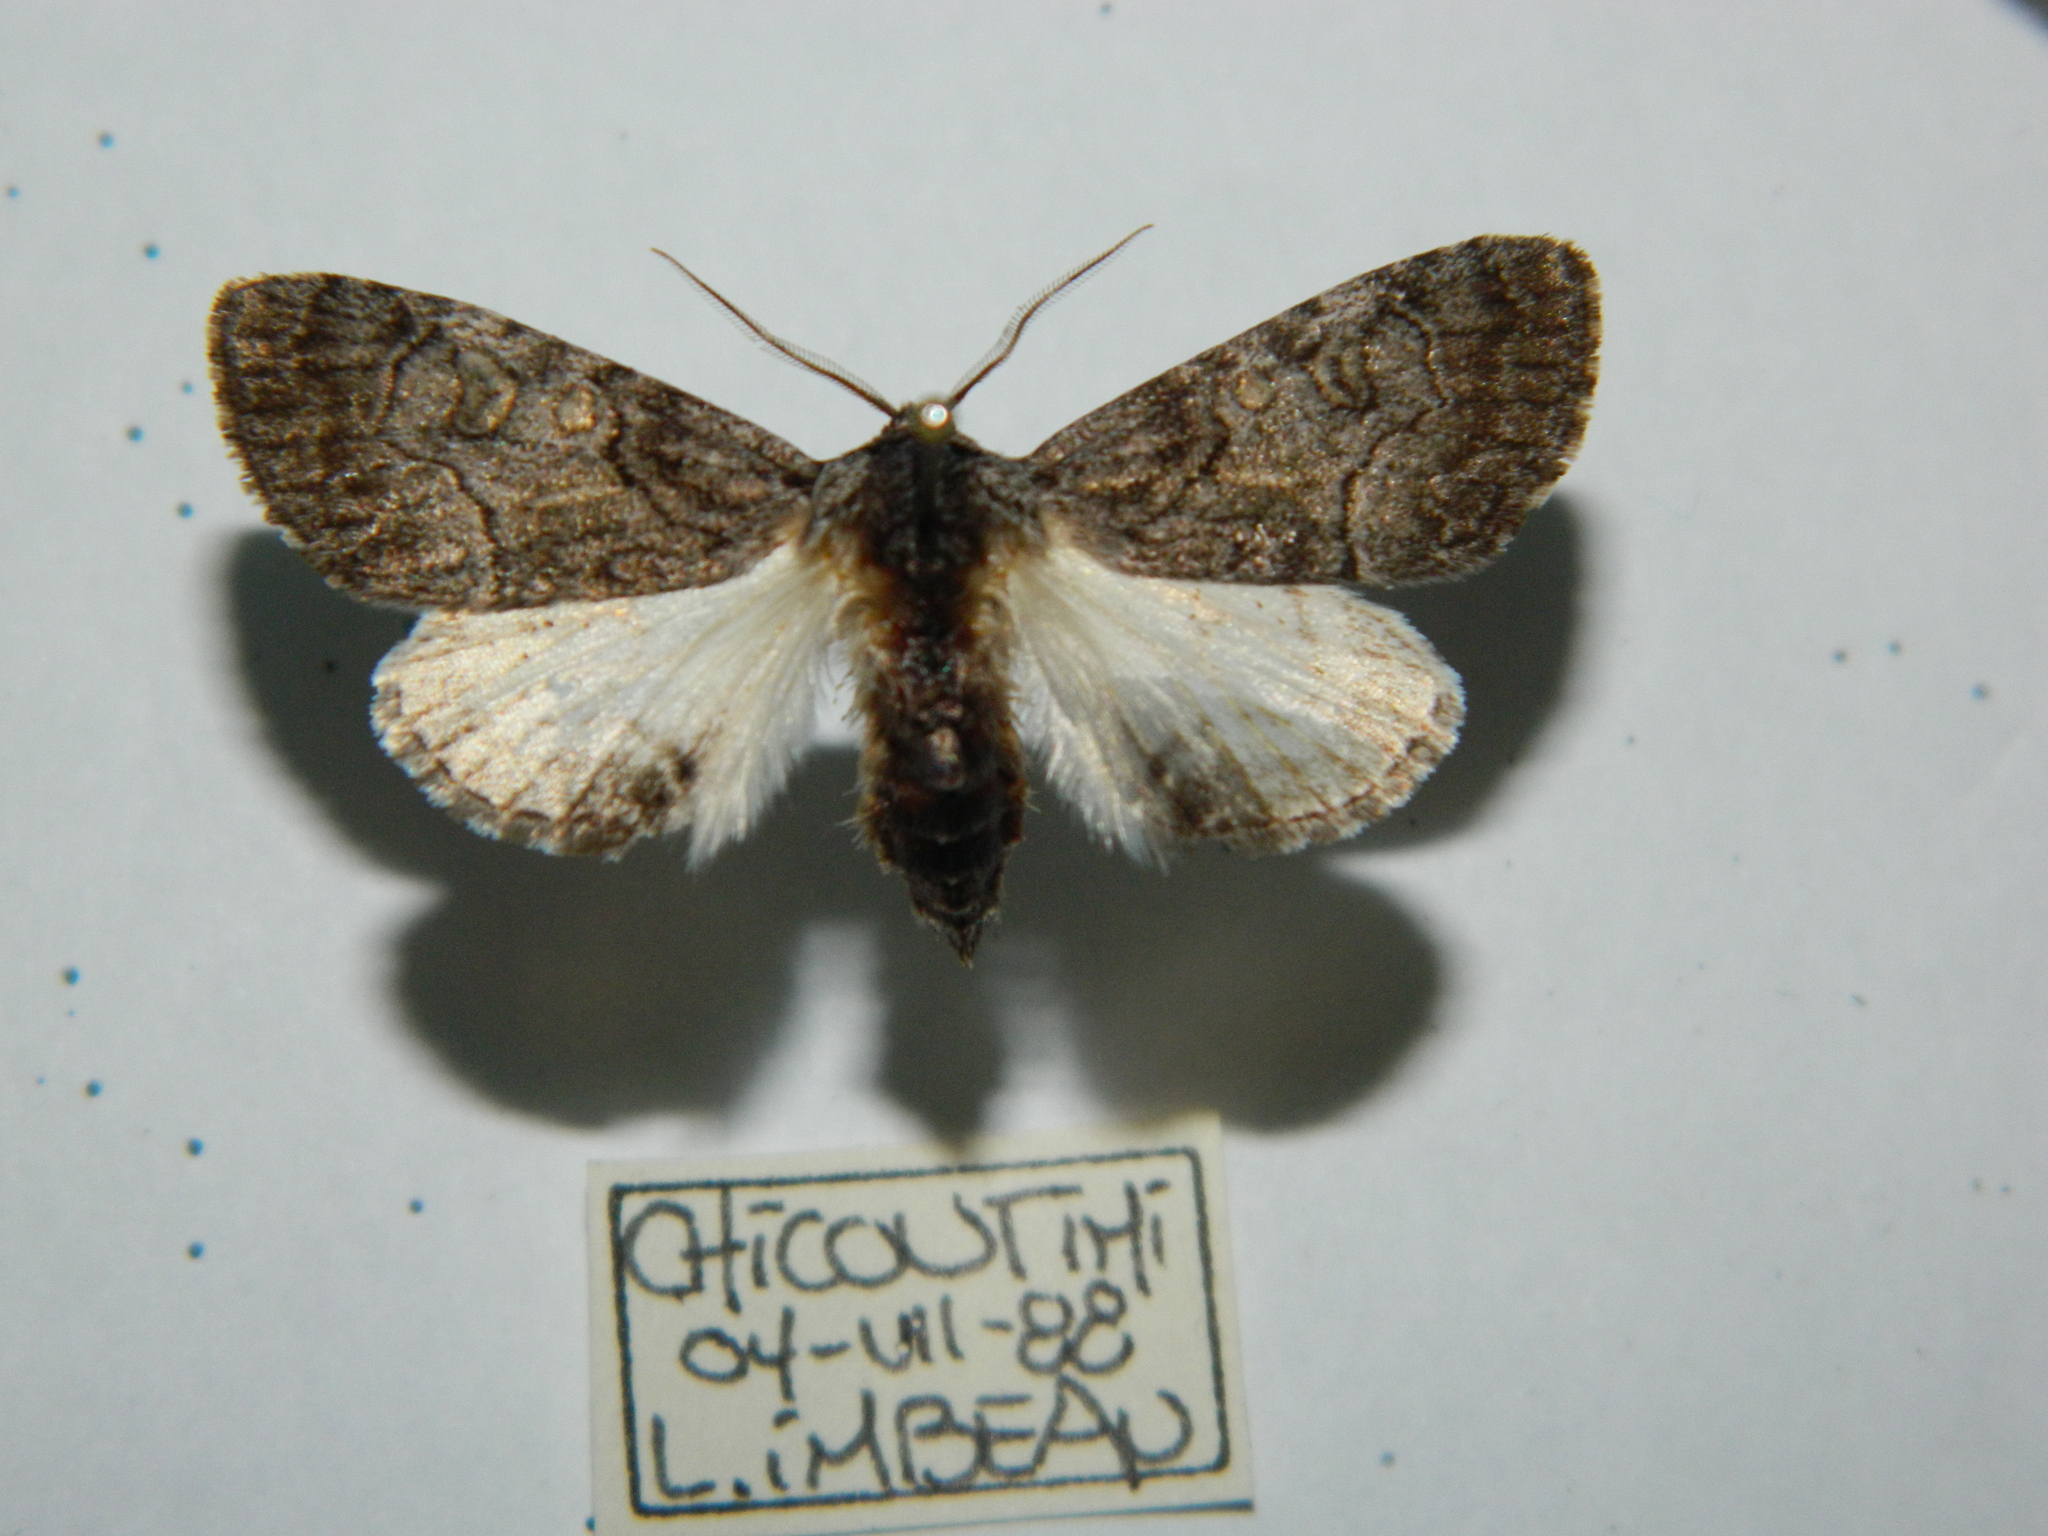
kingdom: Animalia
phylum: Arthropoda
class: Insecta
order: Lepidoptera
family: Noctuidae
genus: Raphia
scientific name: Raphia frater
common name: Brother
